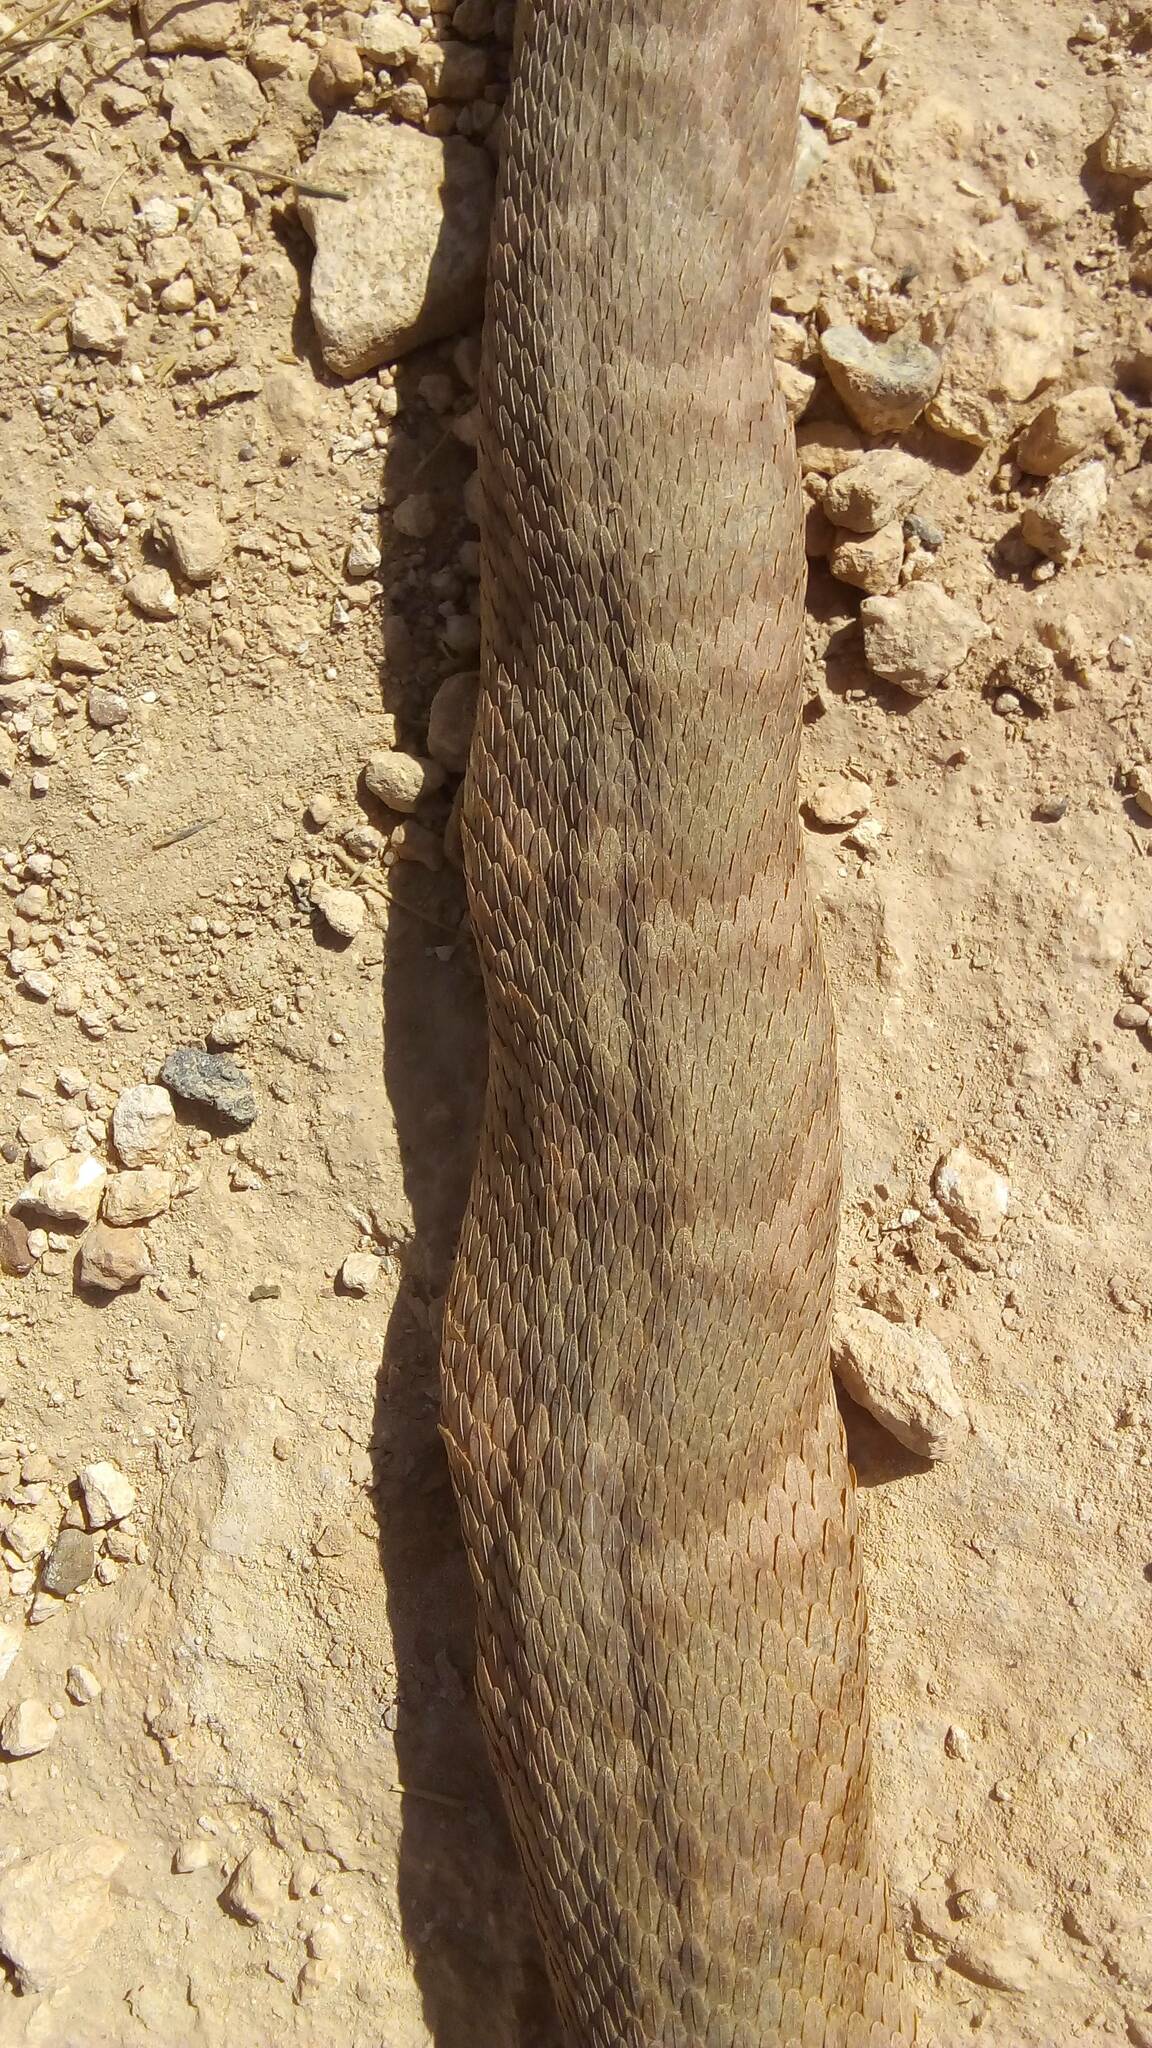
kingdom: Animalia
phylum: Chordata
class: Squamata
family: Viperidae
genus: Daboia
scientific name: Daboia mauritanica
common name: Moorish viper
